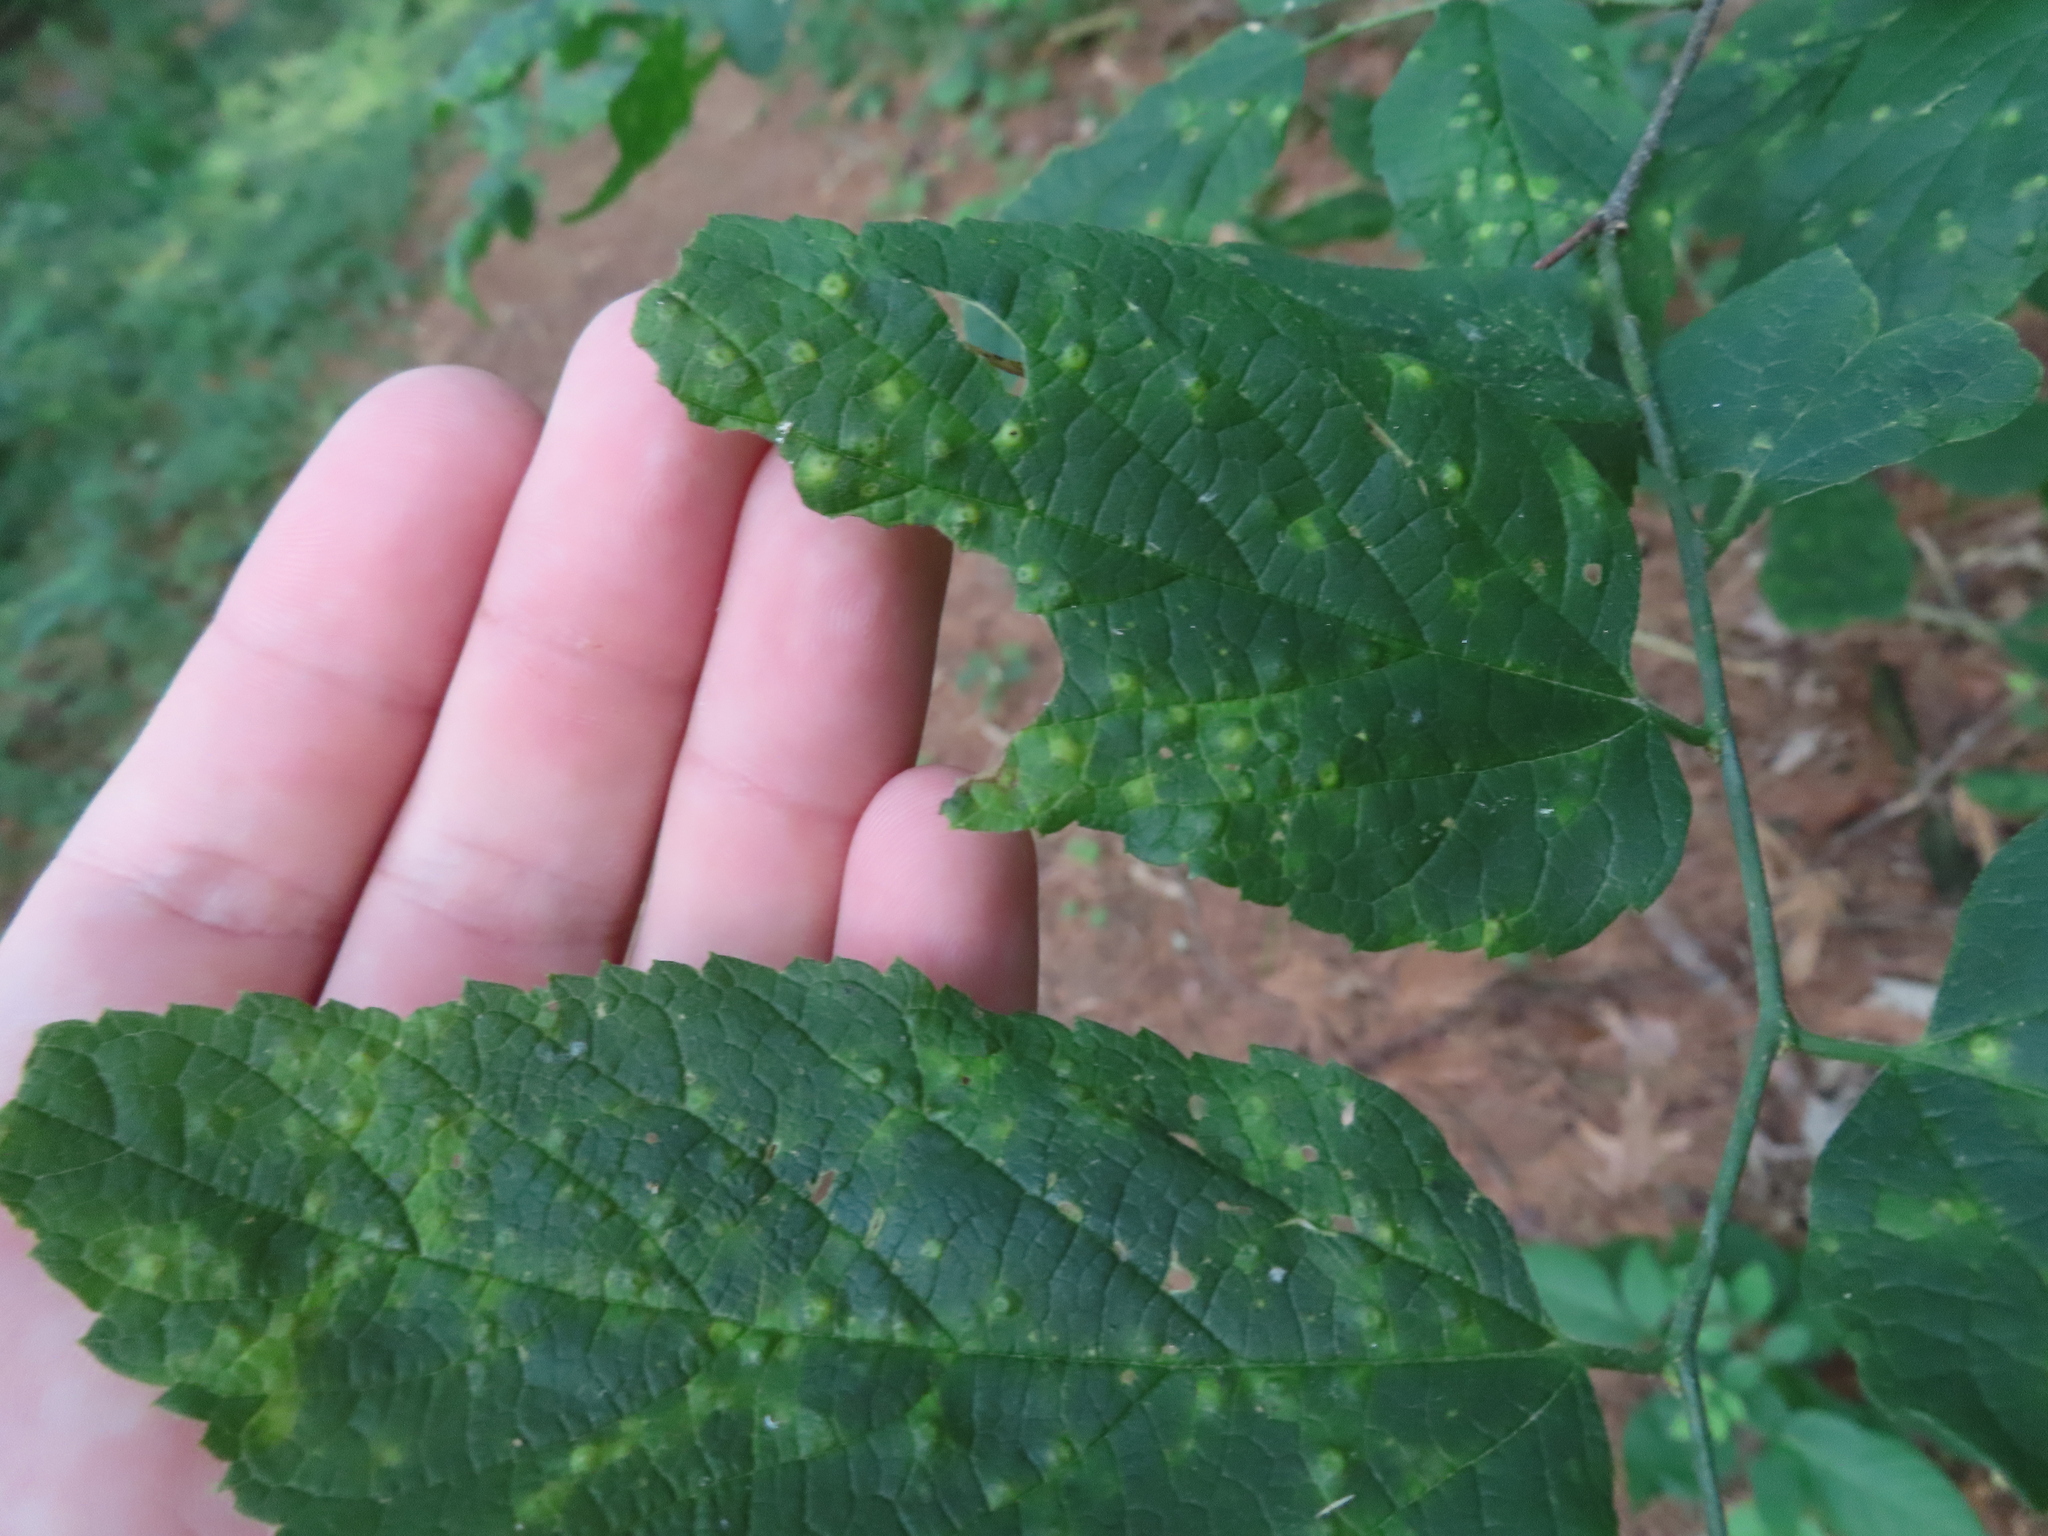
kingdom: Animalia
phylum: Arthropoda
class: Insecta
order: Hemiptera
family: Aphalaridae
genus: Pachypsylla
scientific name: Pachypsylla celtidisvesicula
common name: Hackberry blister gall psyllid
